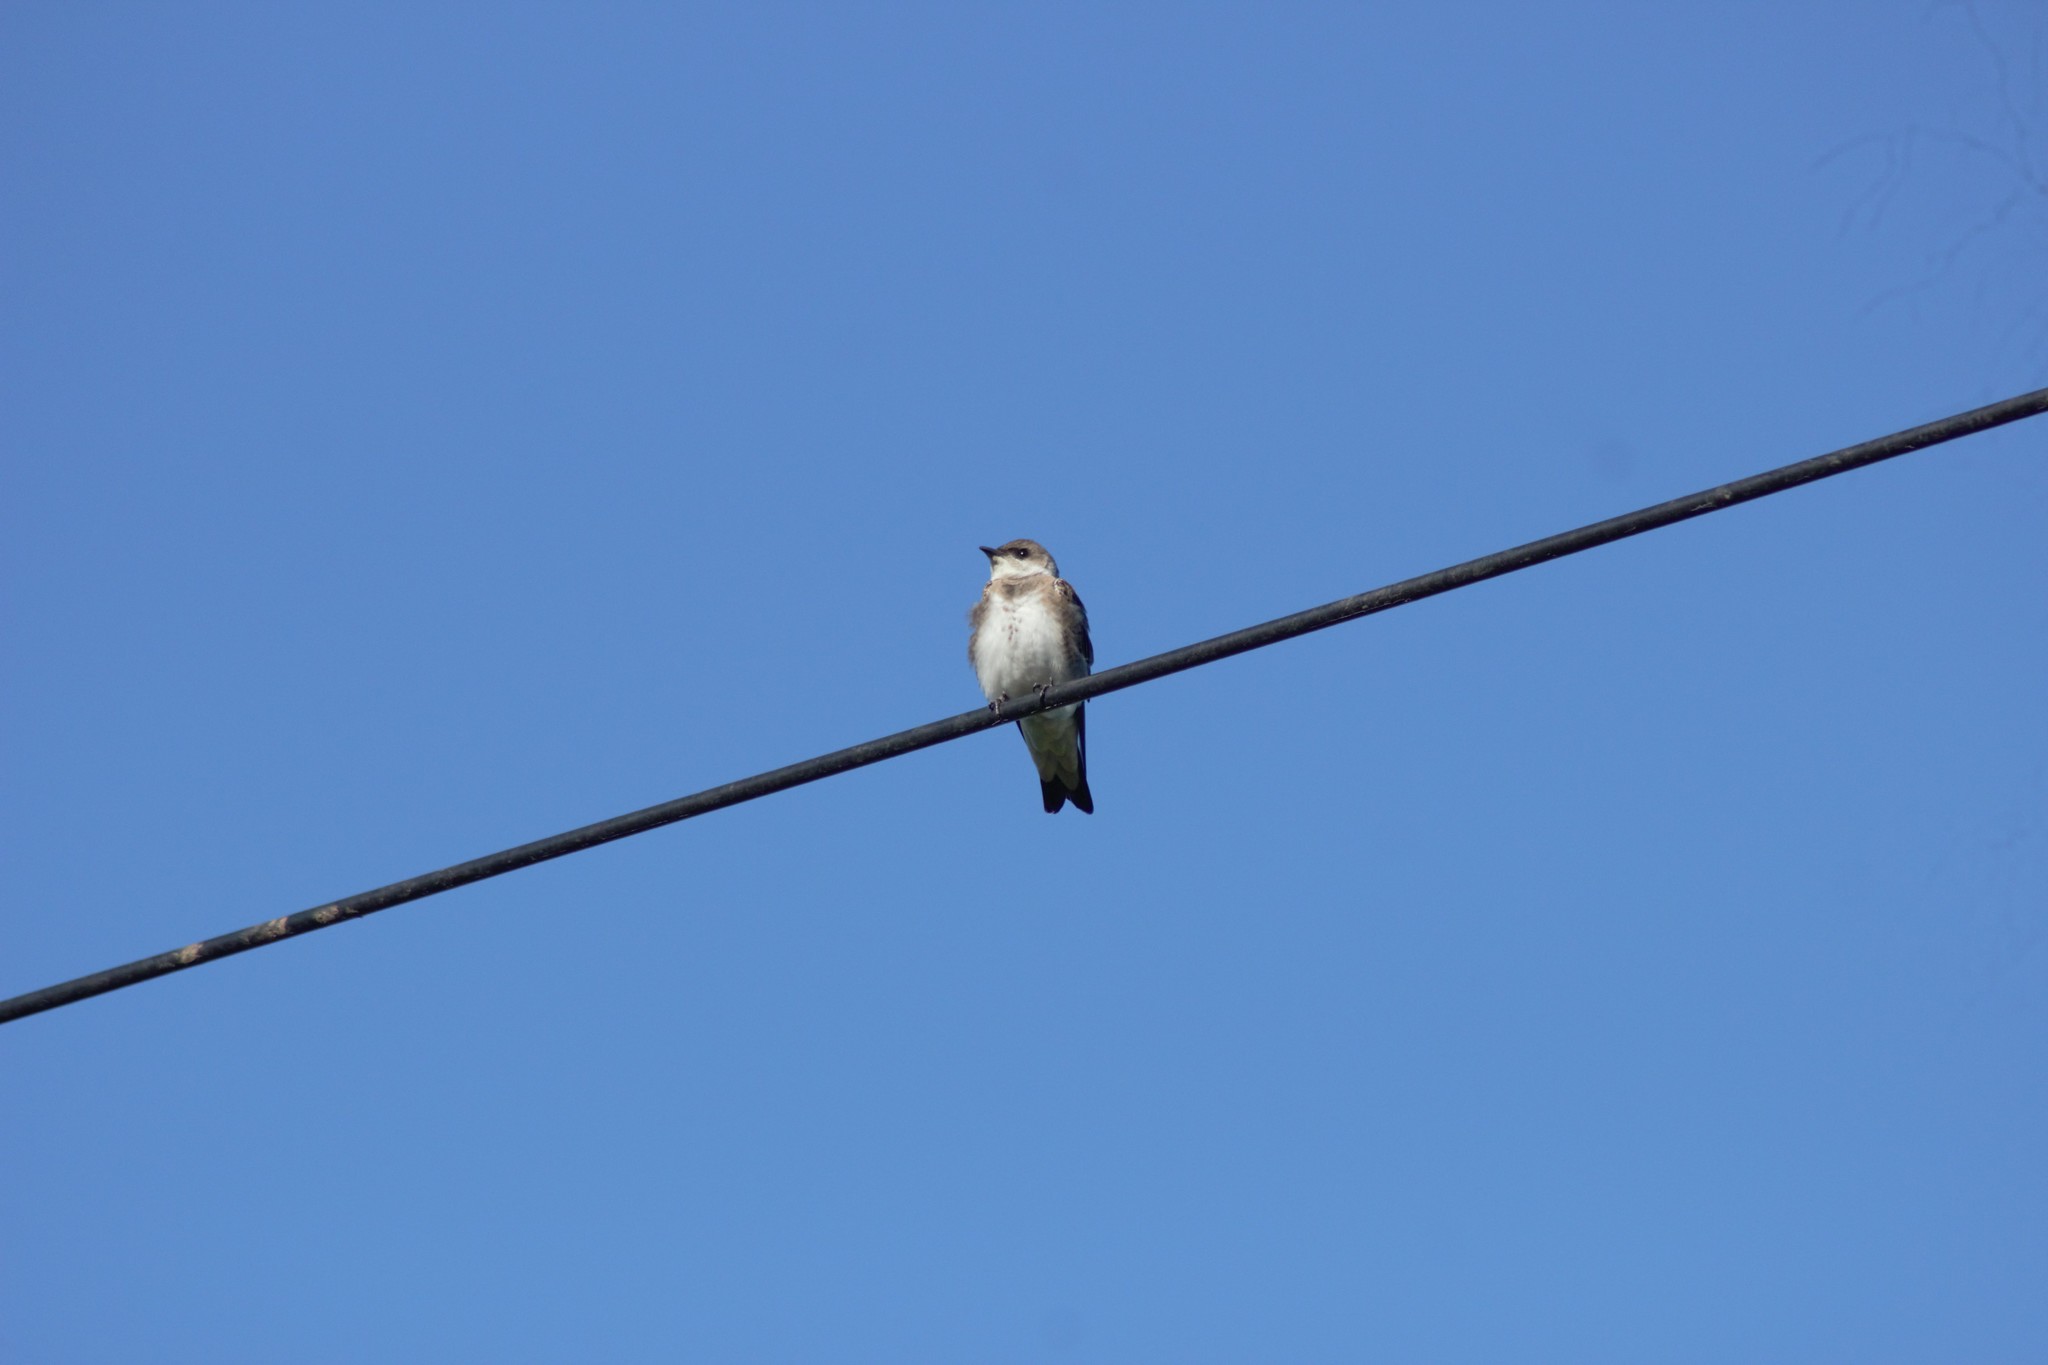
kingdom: Animalia
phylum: Chordata
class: Aves
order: Passeriformes
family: Hirundinidae
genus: Progne
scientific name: Progne tapera
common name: Brown-chested martin
